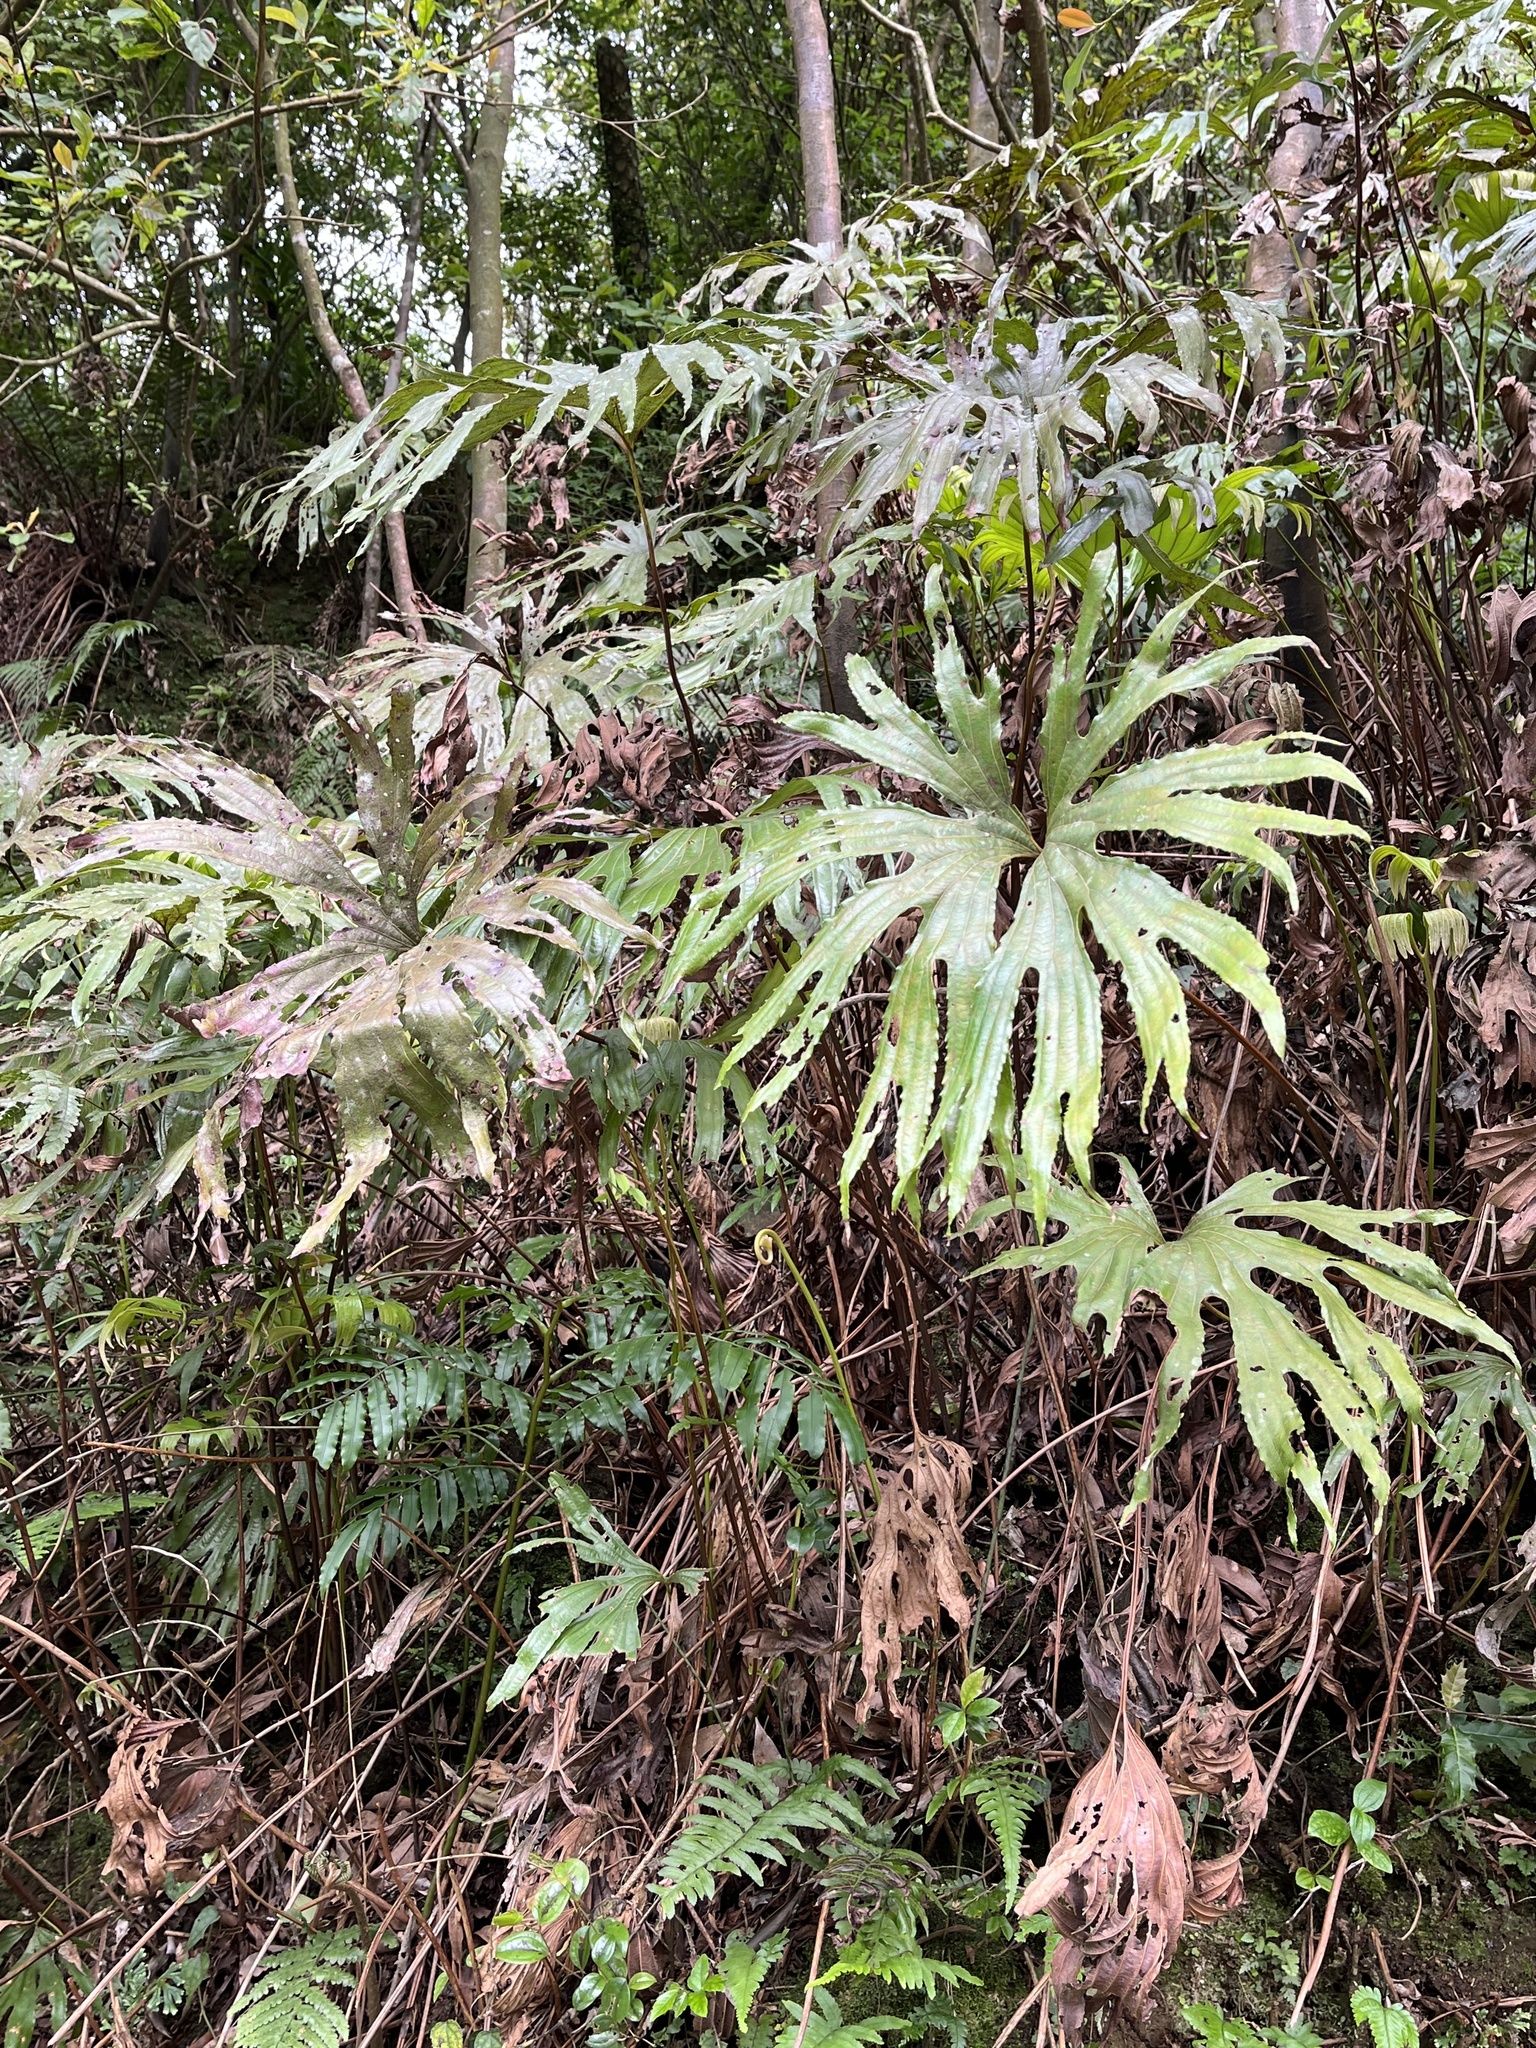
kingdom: Plantae
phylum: Tracheophyta
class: Polypodiopsida
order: Gleicheniales
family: Dipteridaceae
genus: Dipteris
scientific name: Dipteris conjugata
